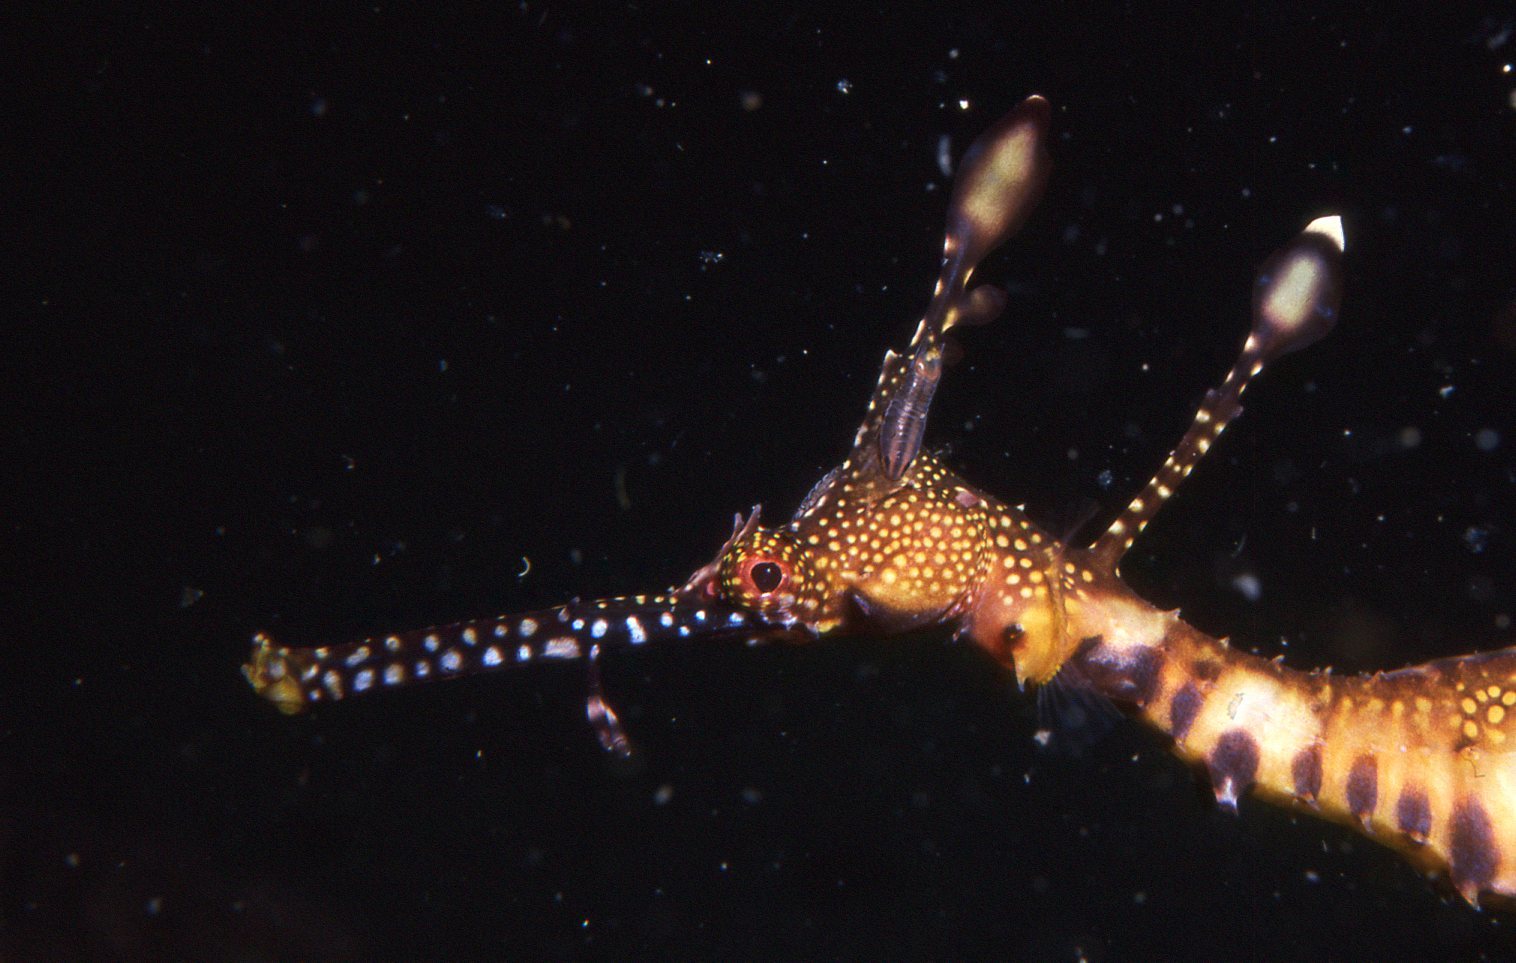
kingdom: Animalia
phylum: Chordata
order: Syngnathiformes
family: Syngnathidae
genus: Phyllopteryx
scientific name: Phyllopteryx taeniolatus
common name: Common seadragon
